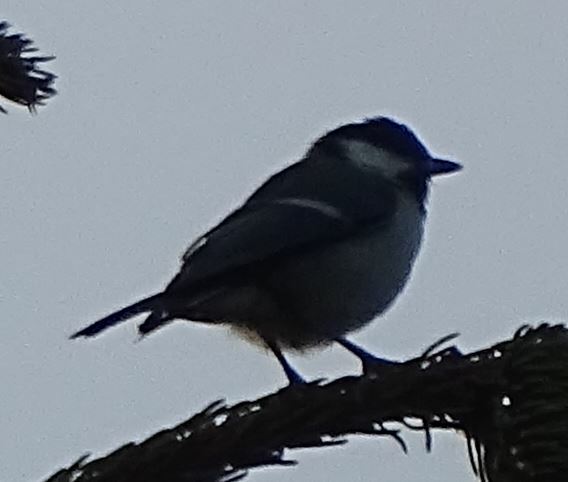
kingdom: Animalia
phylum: Chordata
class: Aves
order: Passeriformes
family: Paridae
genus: Parus
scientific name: Parus major
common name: Great tit
